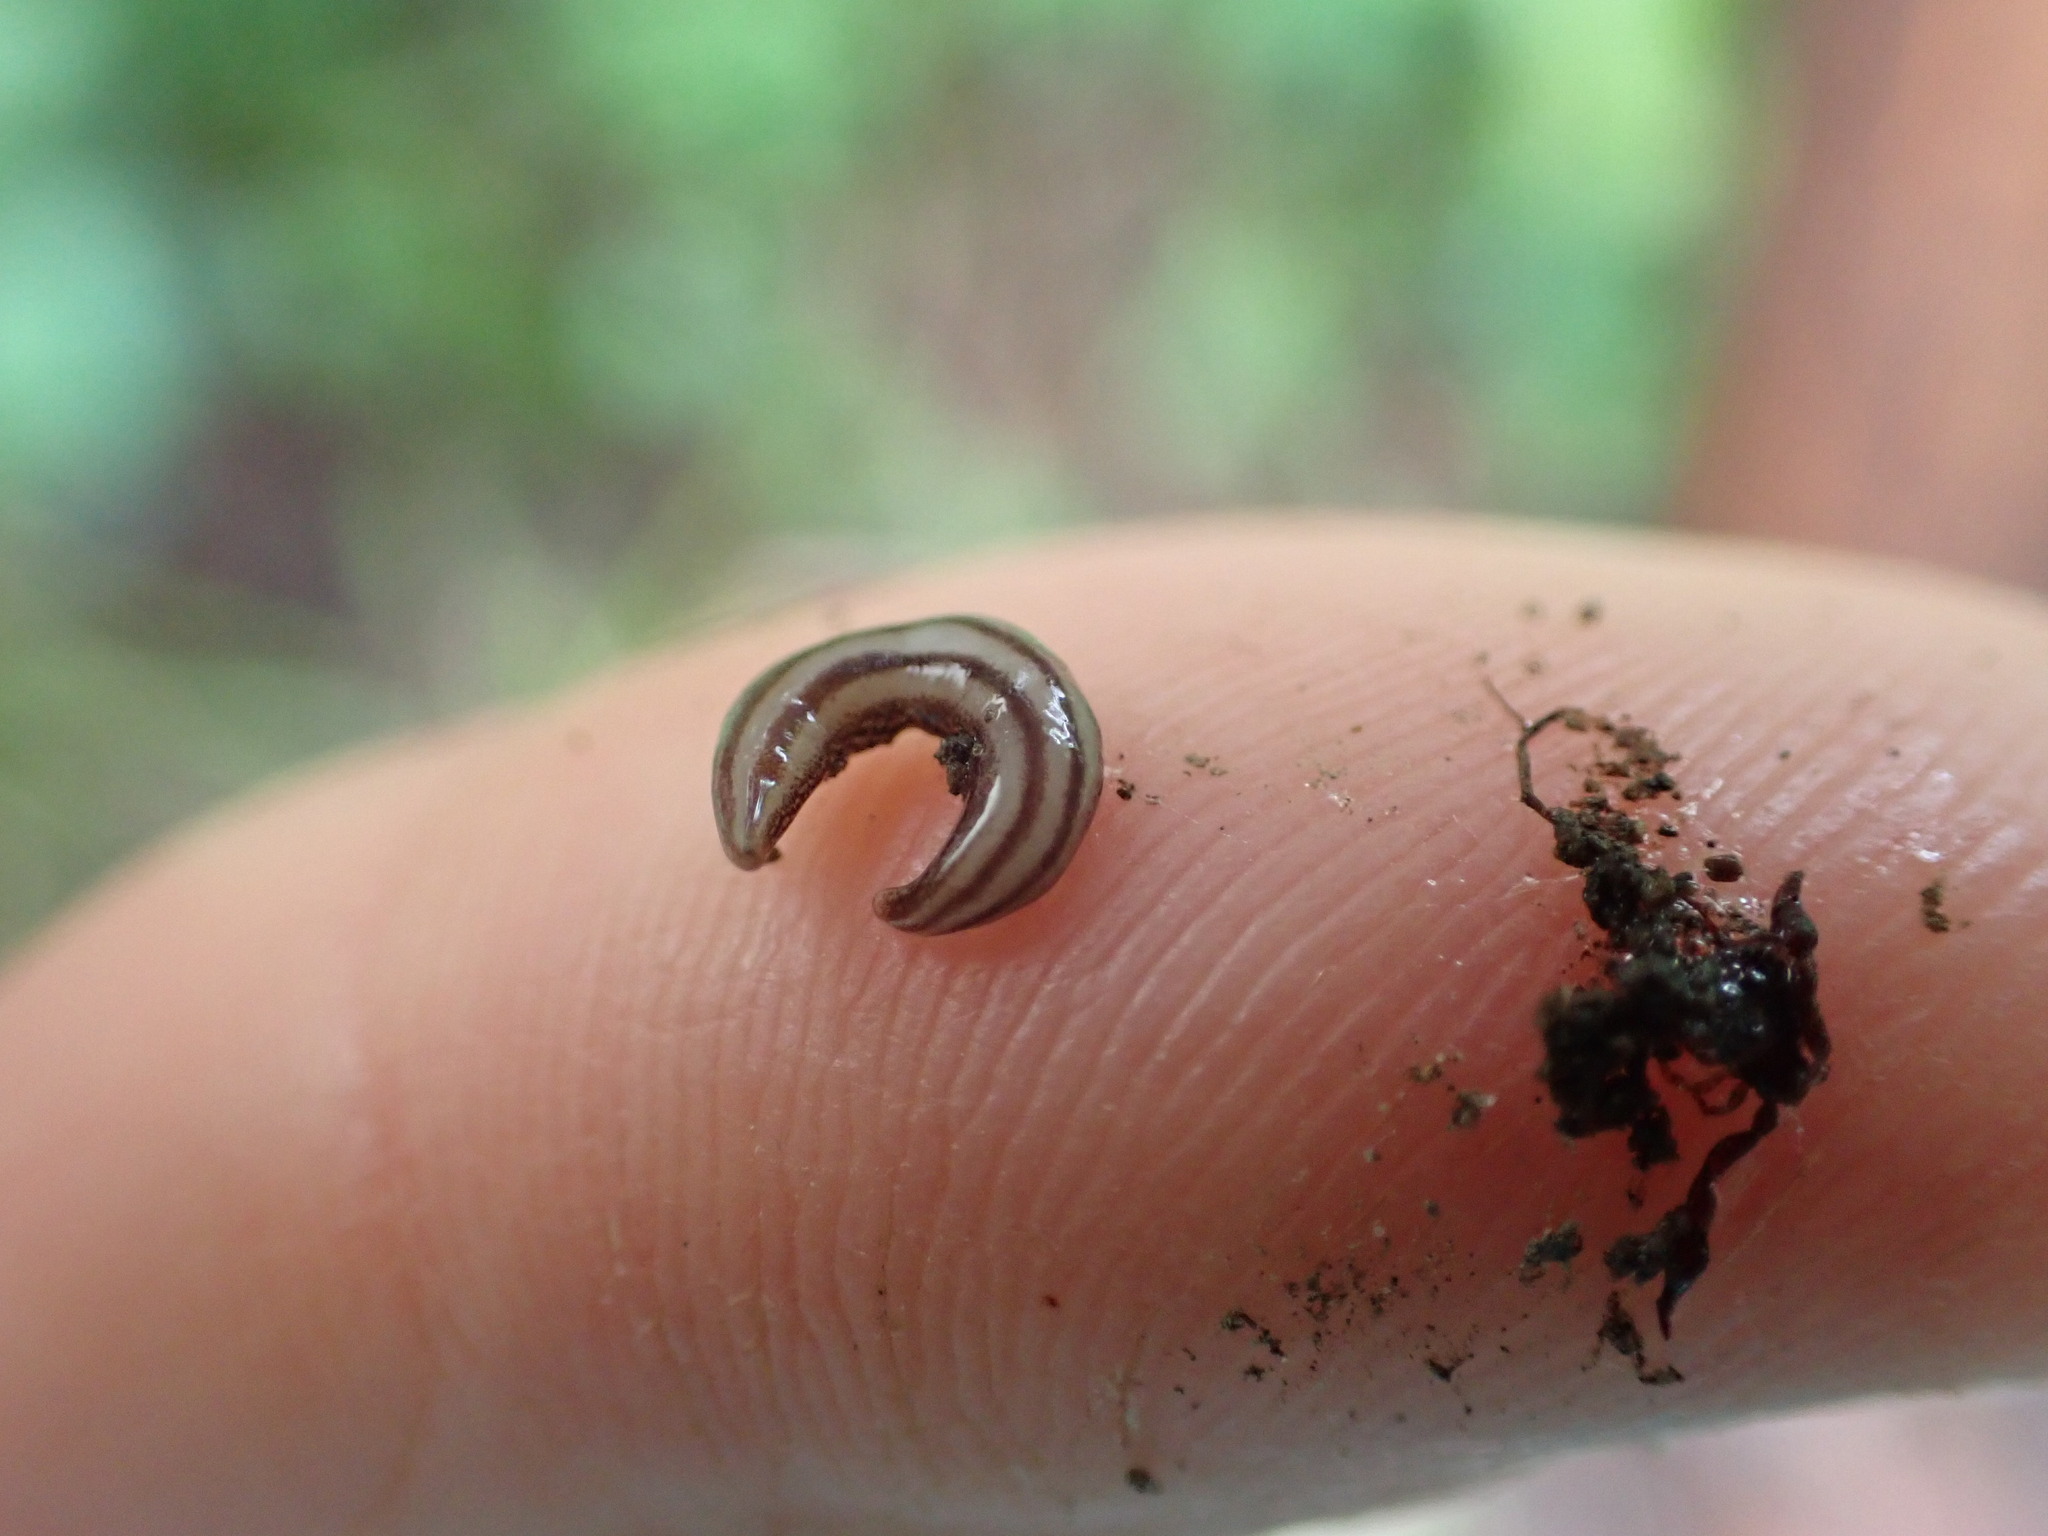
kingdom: Animalia
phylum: Platyhelminthes
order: Tricladida
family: Geoplanidae
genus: Artioposthia
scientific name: Artioposthia exulans
